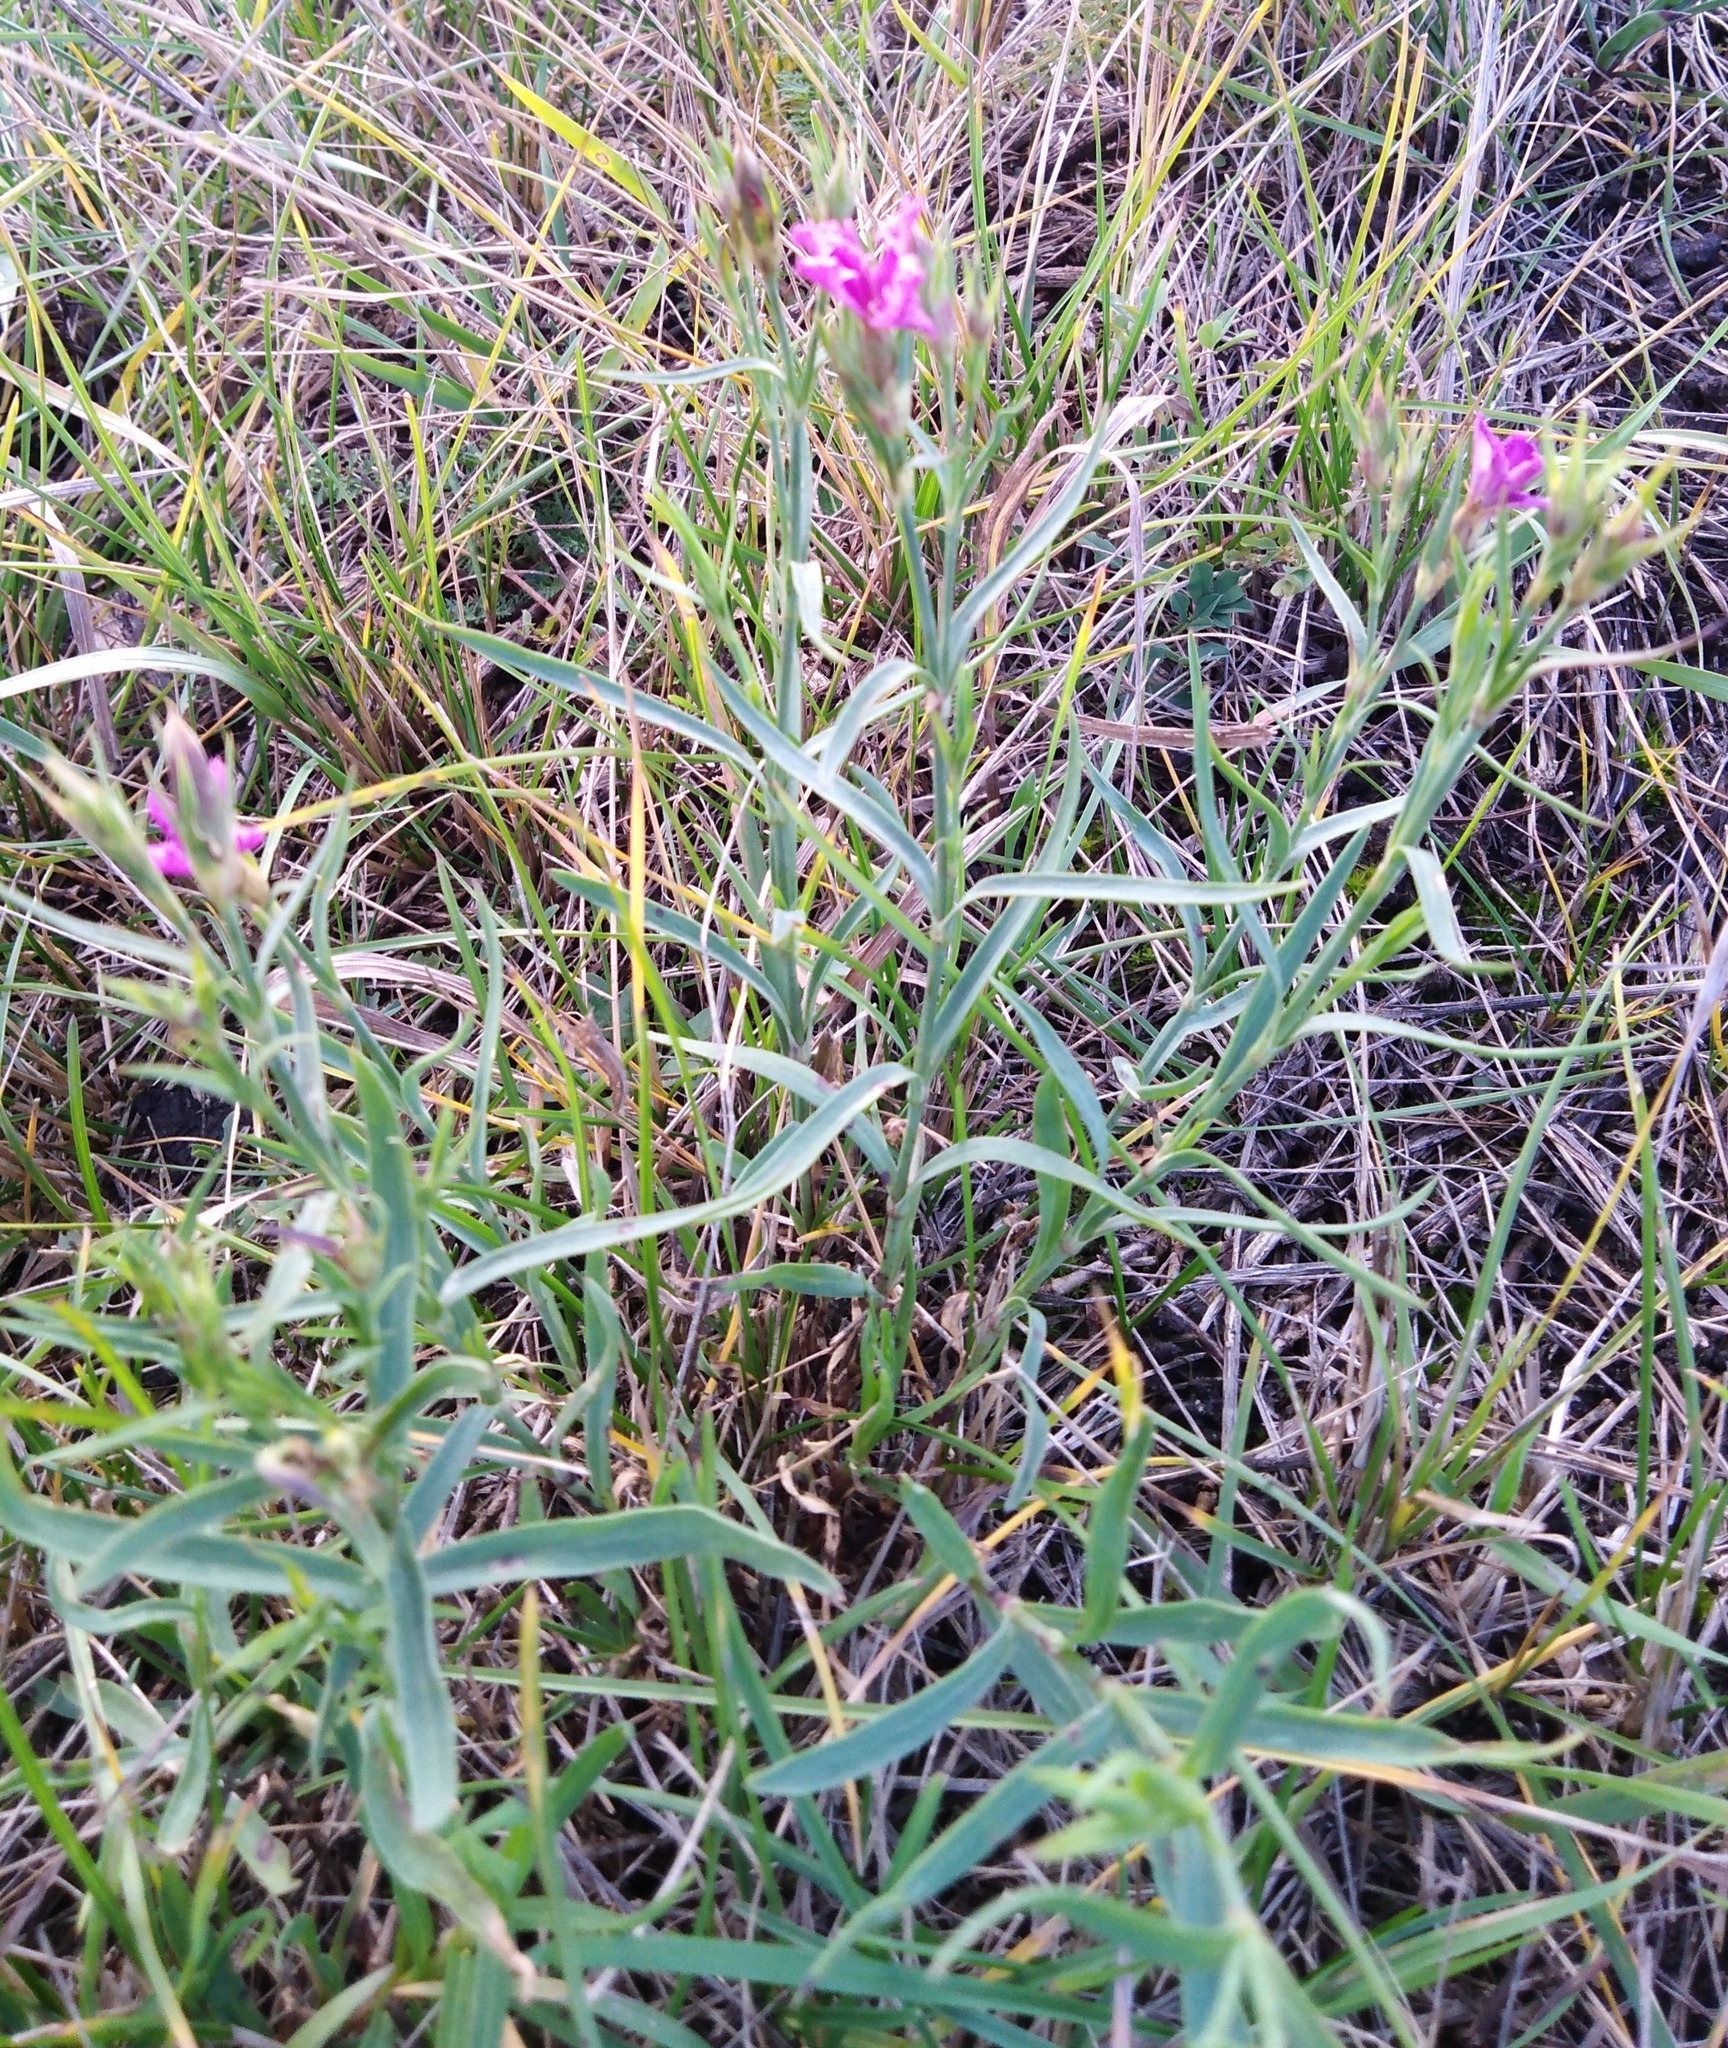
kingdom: Plantae
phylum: Tracheophyta
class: Magnoliopsida
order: Caryophyllales
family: Caryophyllaceae
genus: Dianthus
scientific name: Dianthus chinensis
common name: Rainbow pink
